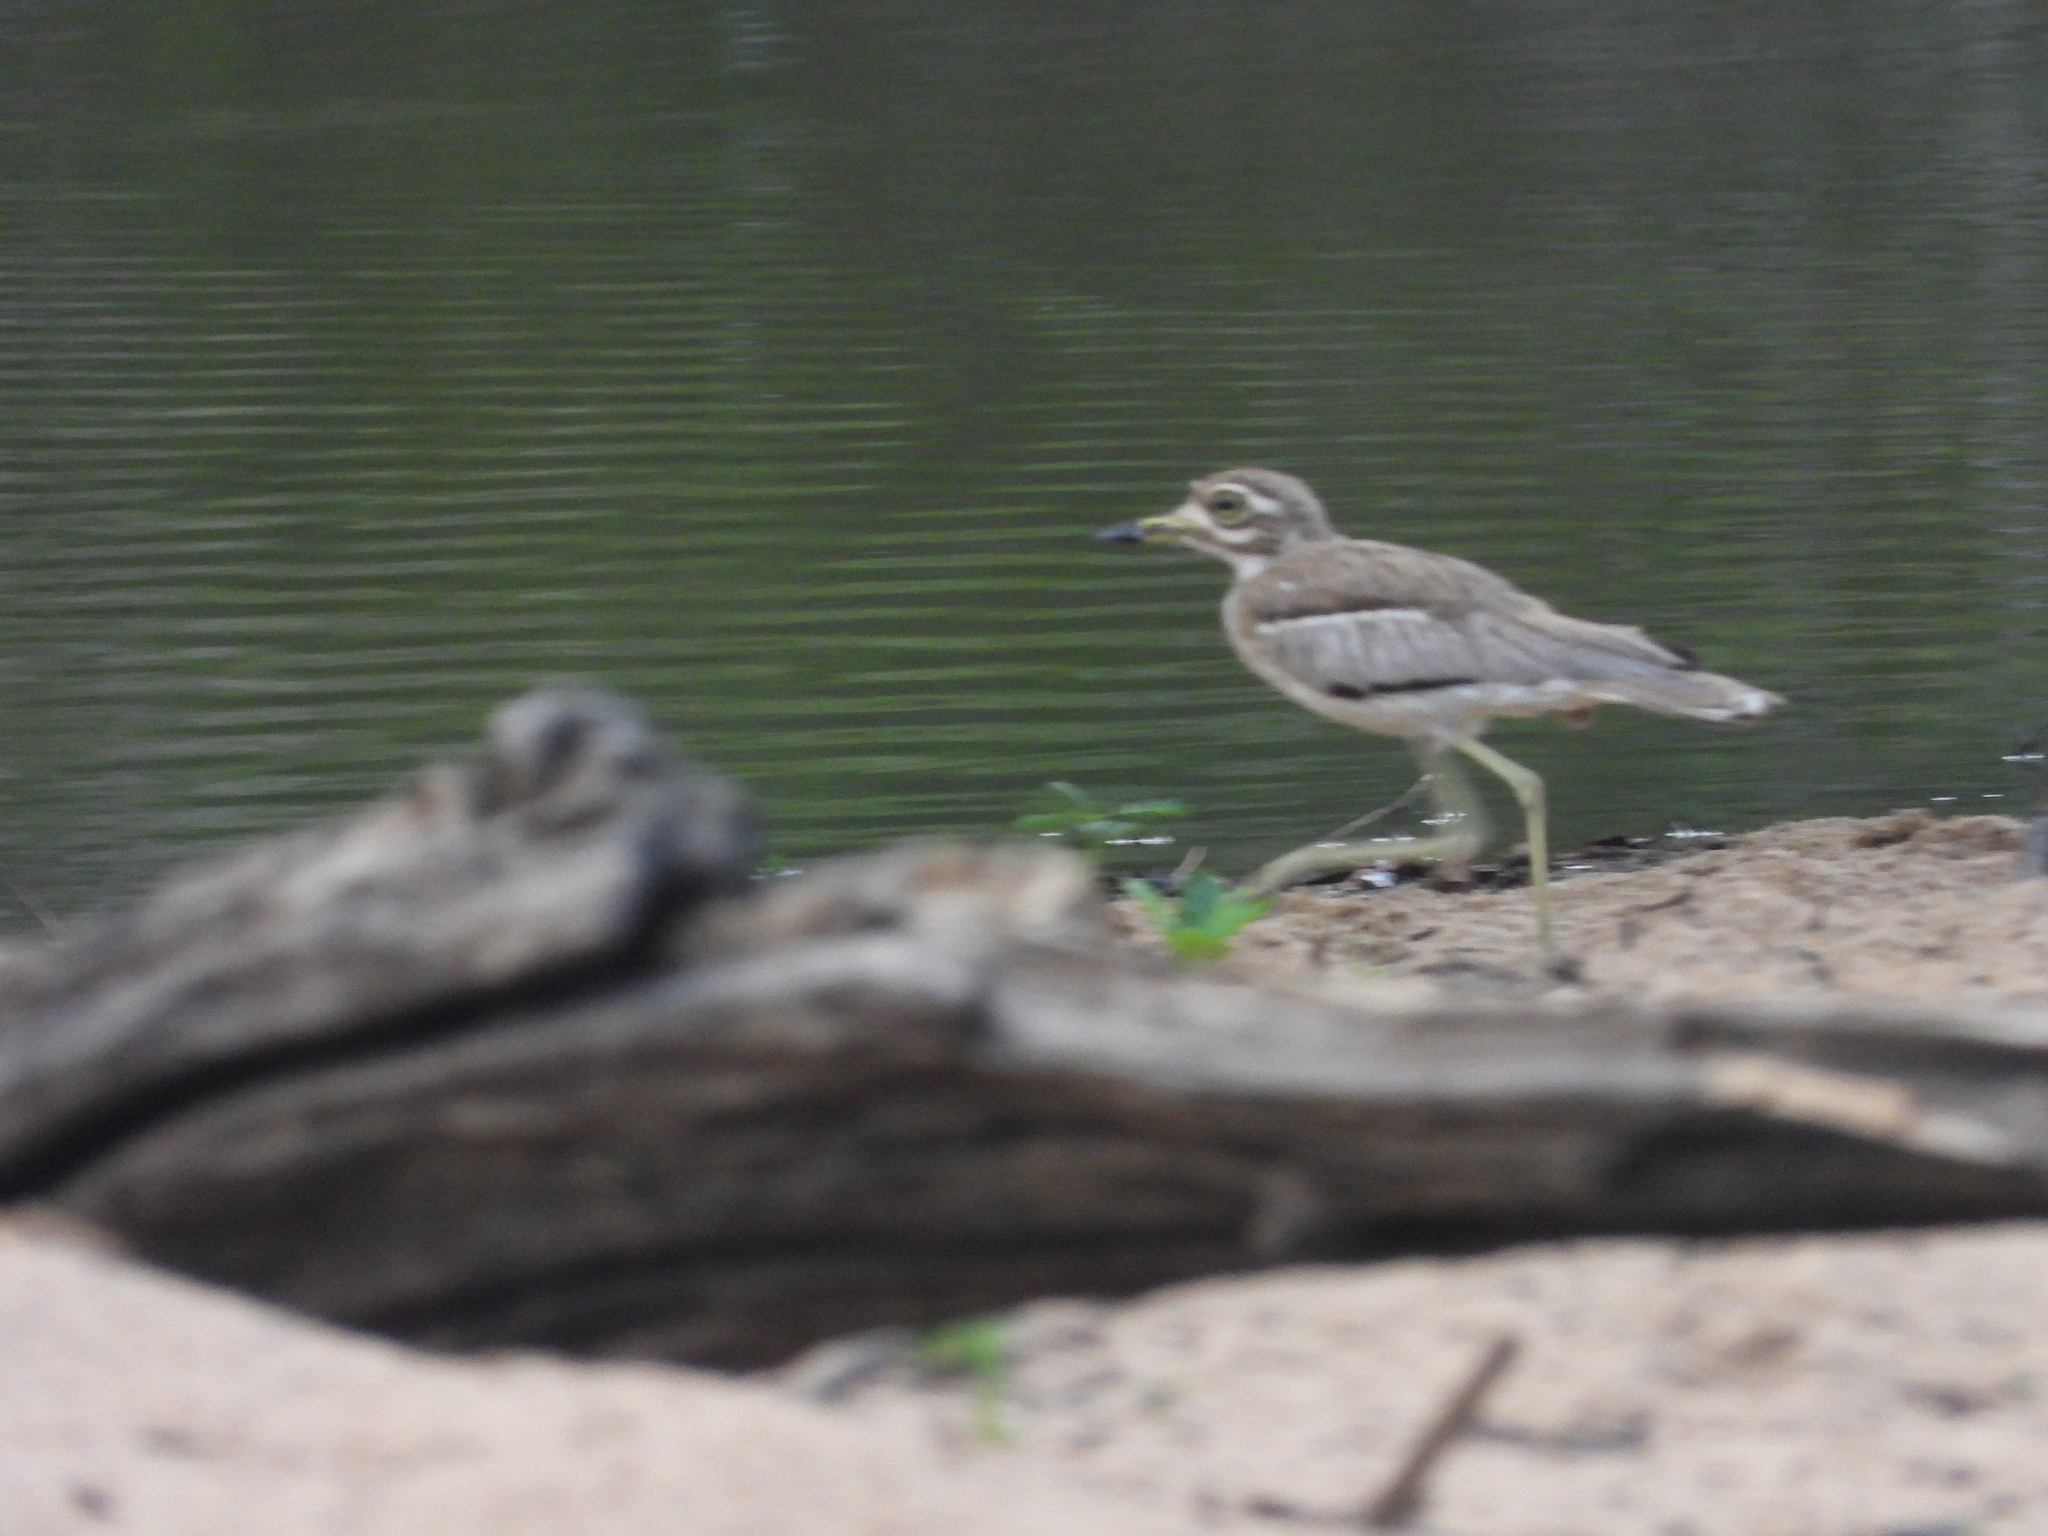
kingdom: Animalia
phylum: Chordata
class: Aves
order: Charadriiformes
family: Burhinidae
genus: Burhinus
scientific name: Burhinus vermiculatus
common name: Water thick-knee
